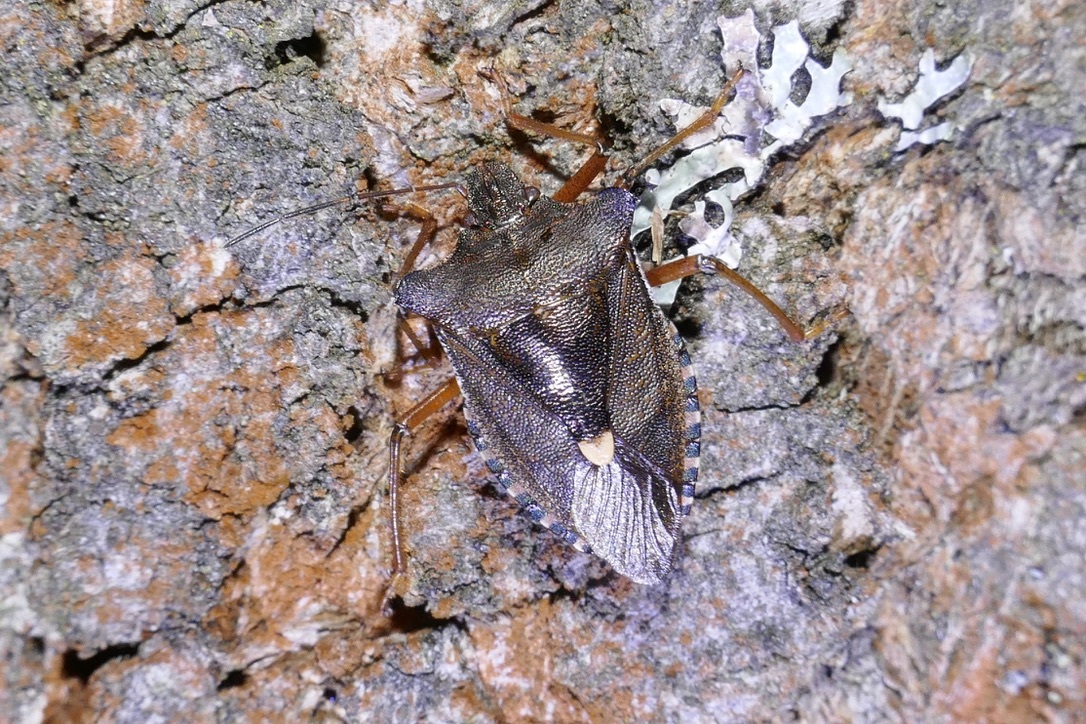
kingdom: Animalia
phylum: Arthropoda
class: Insecta
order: Hemiptera
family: Pentatomidae
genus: Pentatoma
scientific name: Pentatoma rufipes
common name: Forest bug
